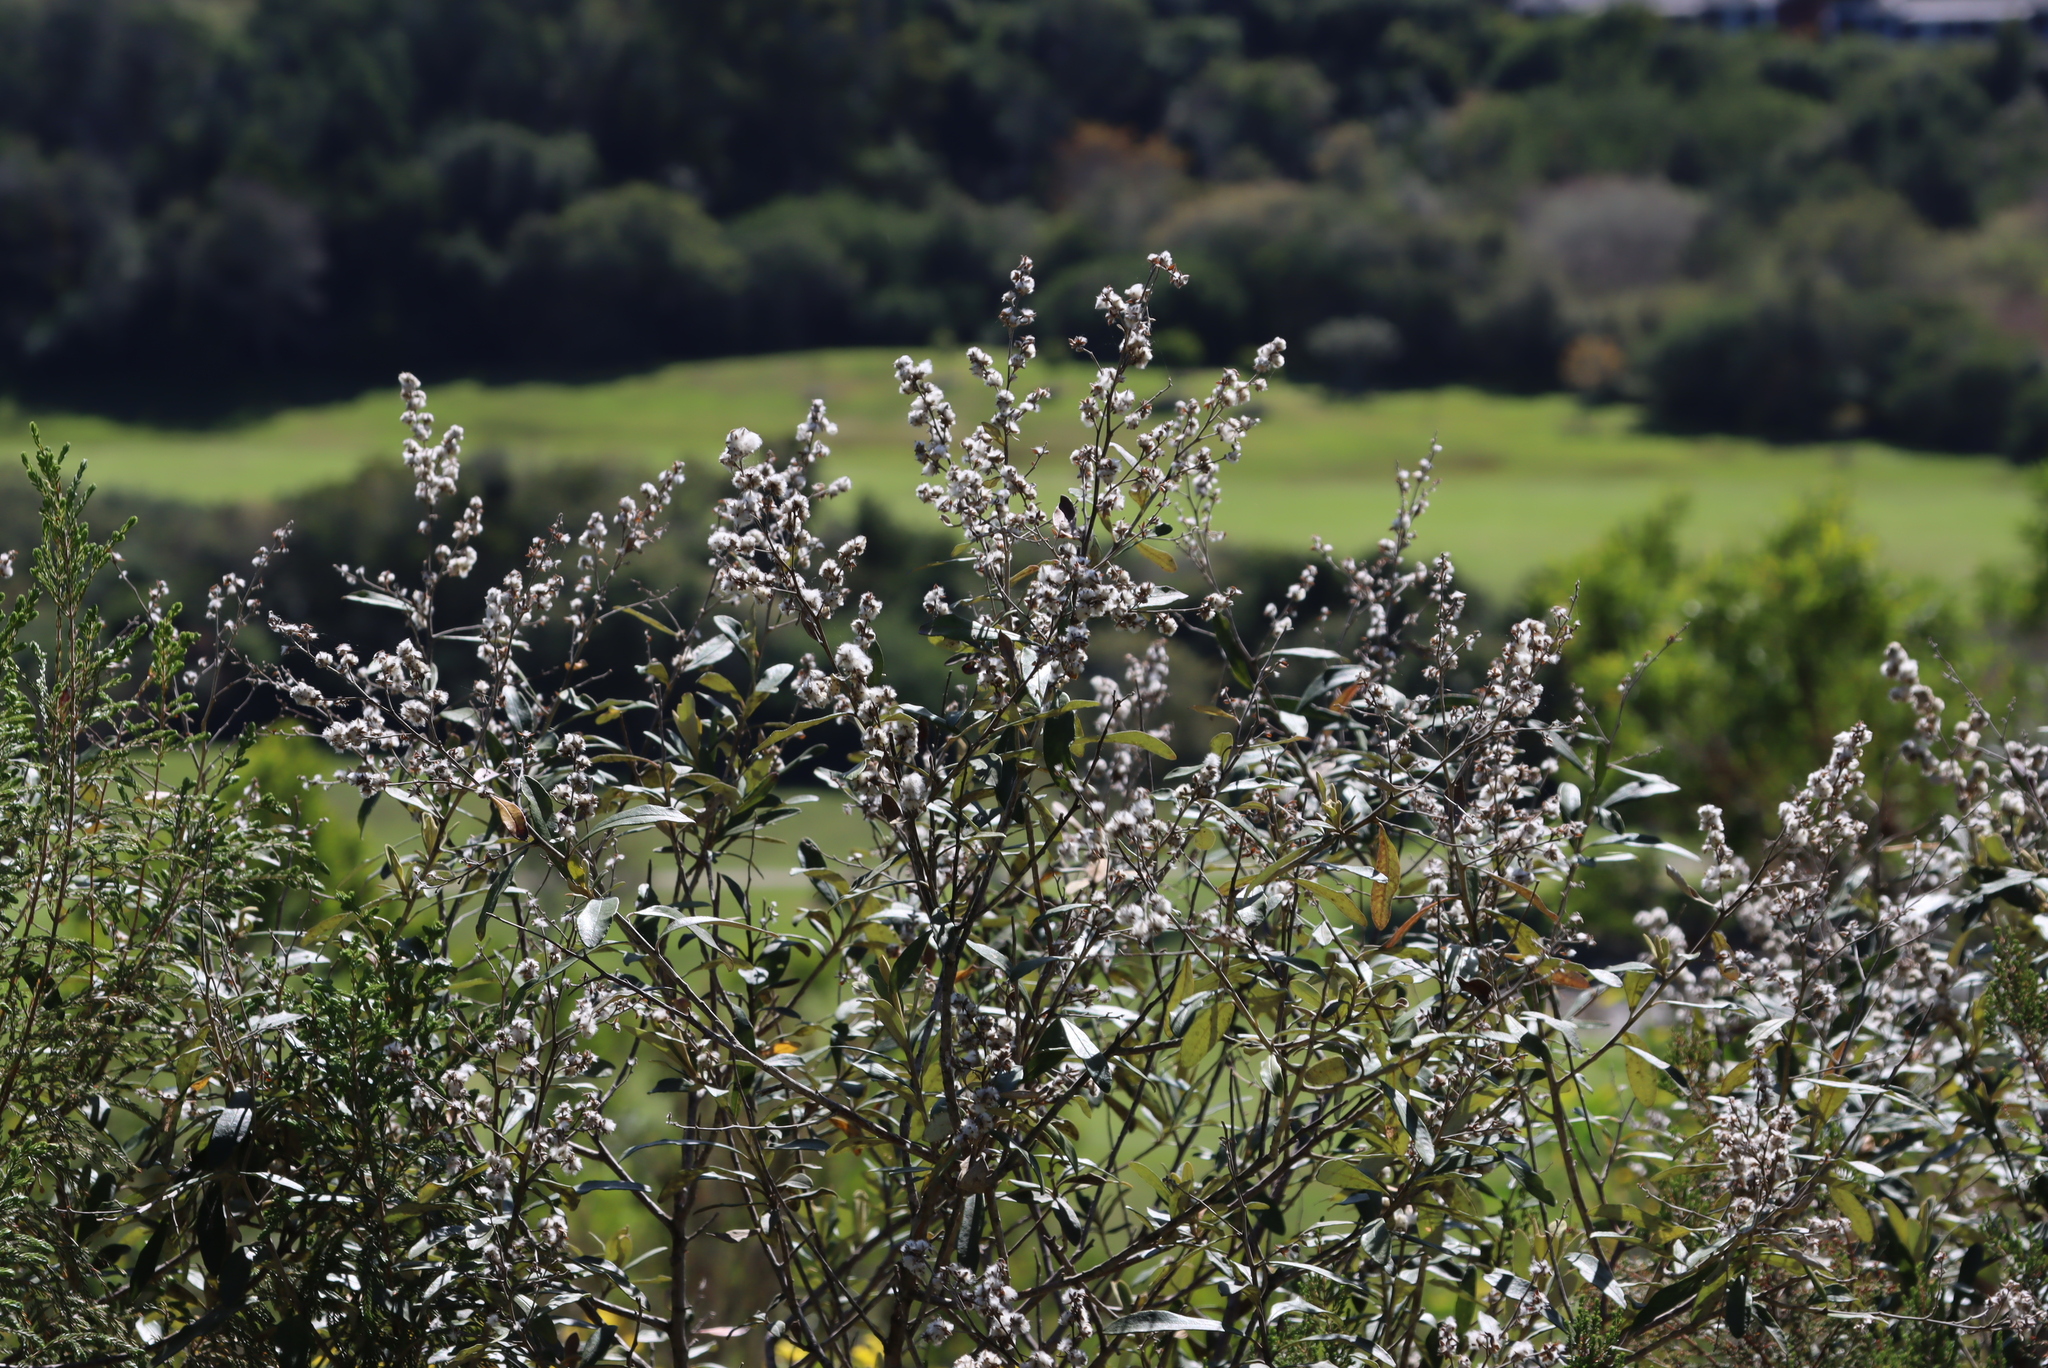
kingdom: Plantae
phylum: Tracheophyta
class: Magnoliopsida
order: Asterales
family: Asteraceae
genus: Tarchonanthus
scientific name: Tarchonanthus littoralis
